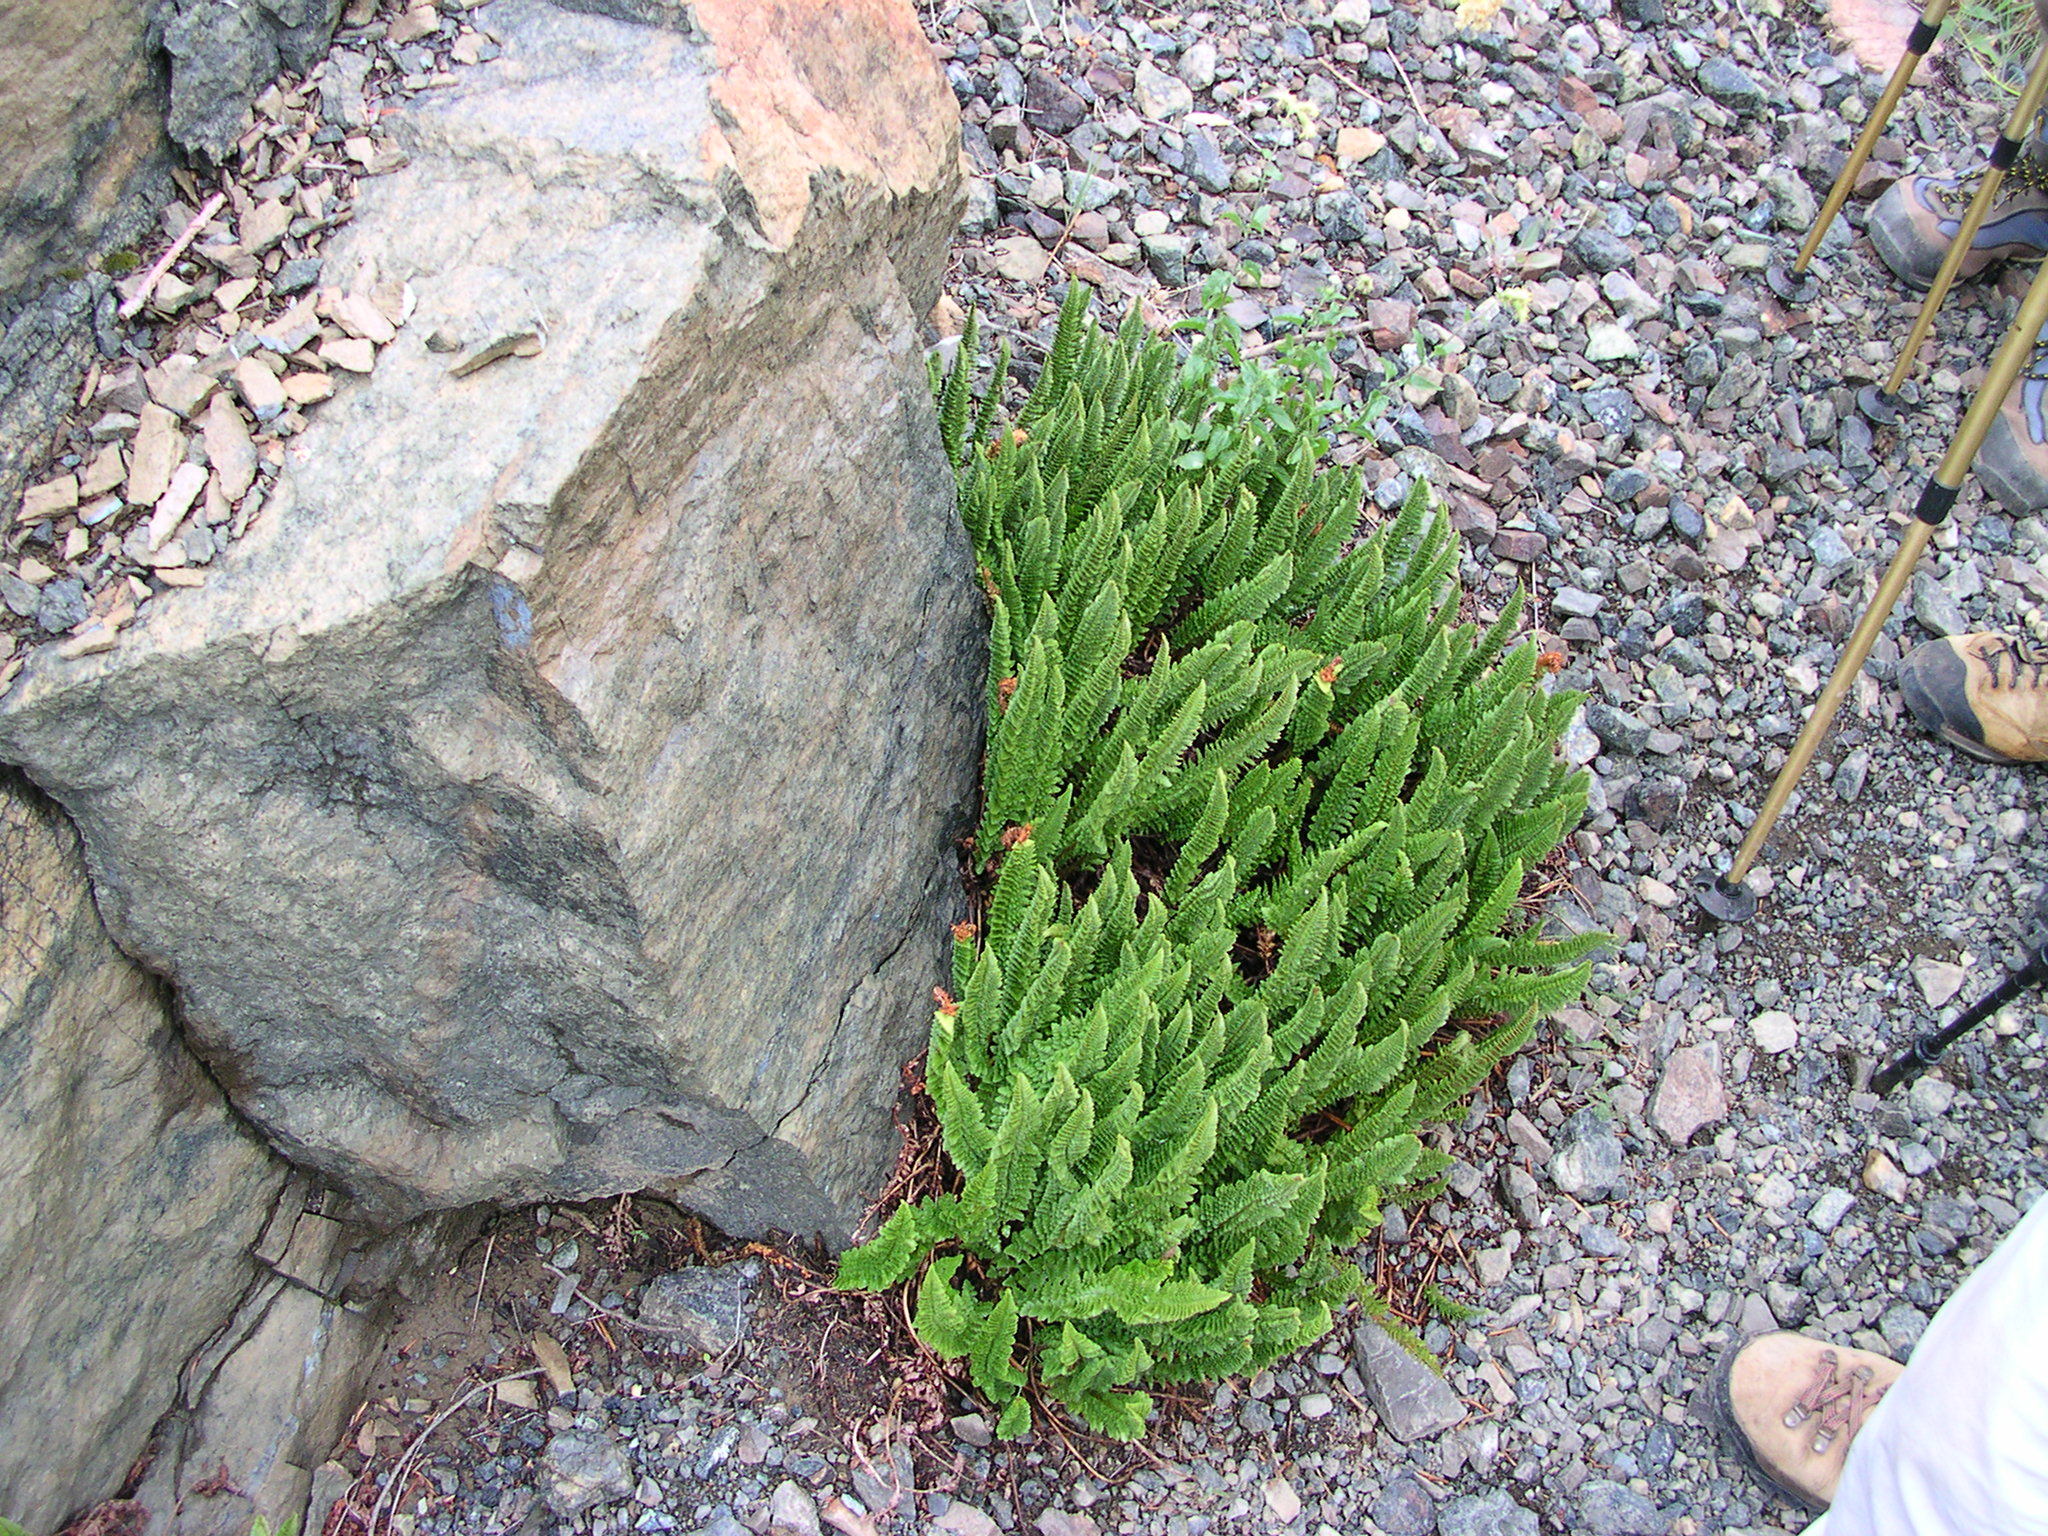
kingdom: Plantae
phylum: Tracheophyta
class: Polypodiopsida
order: Polypodiales
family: Dryopteridaceae
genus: Polystichum
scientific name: Polystichum lemmonii
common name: Lemmon's holly fern
